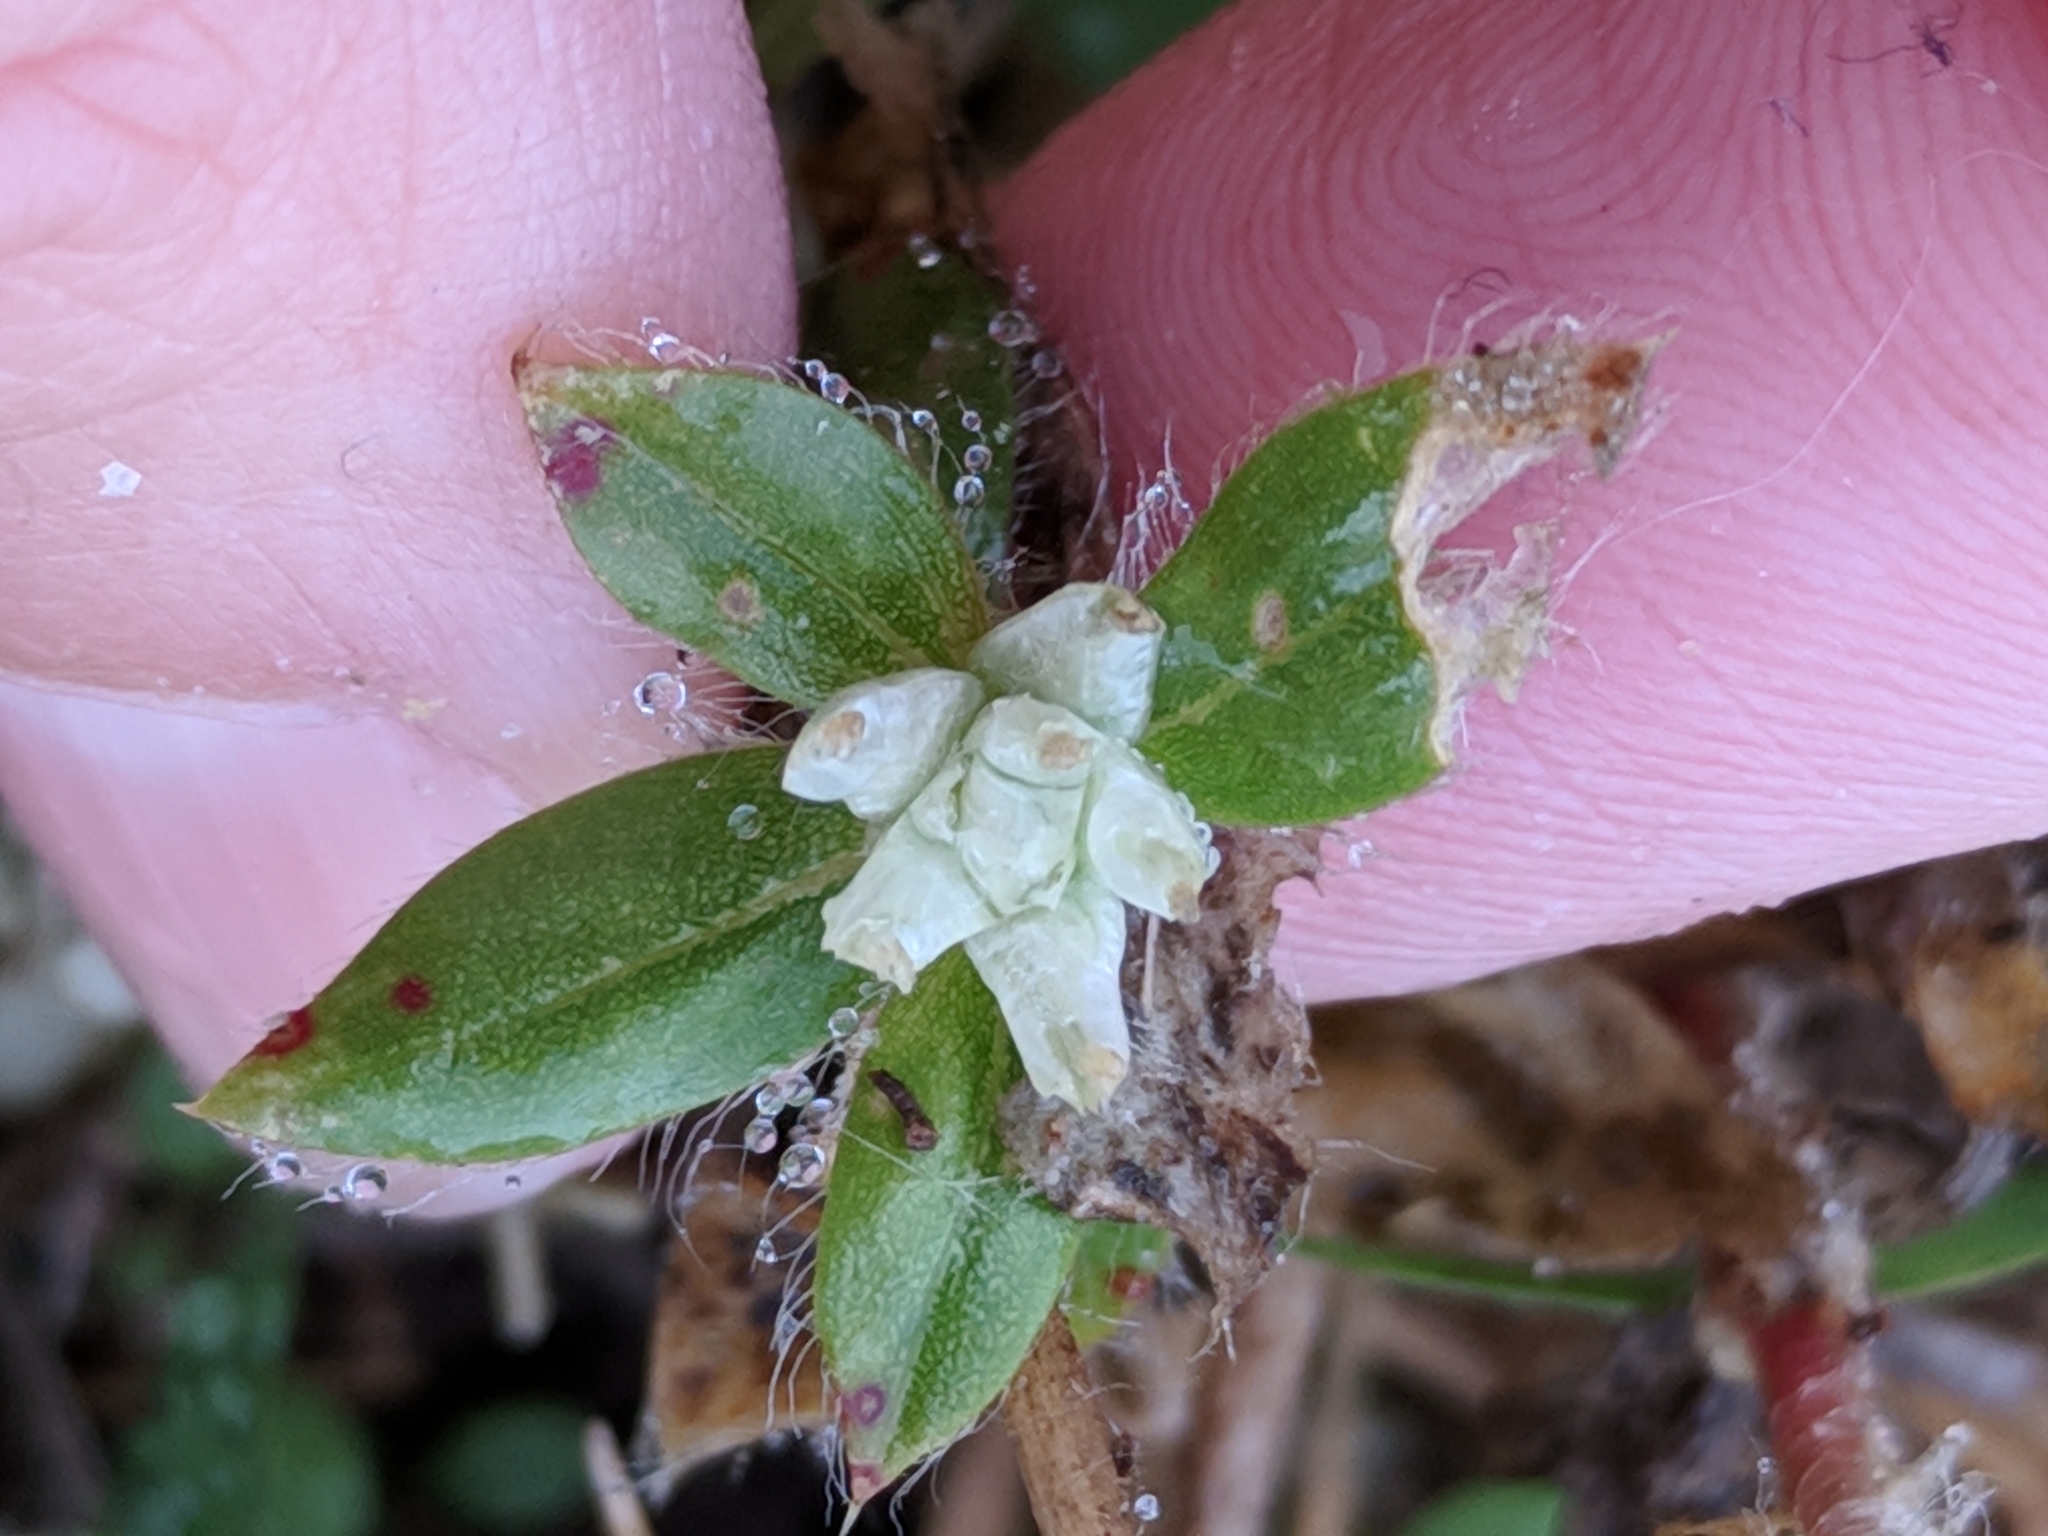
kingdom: Plantae
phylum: Tracheophyta
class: Magnoliopsida
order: Caryophyllales
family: Amaranthaceae
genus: Gomphrena
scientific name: Gomphrena serrata
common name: Arrasa con todo
